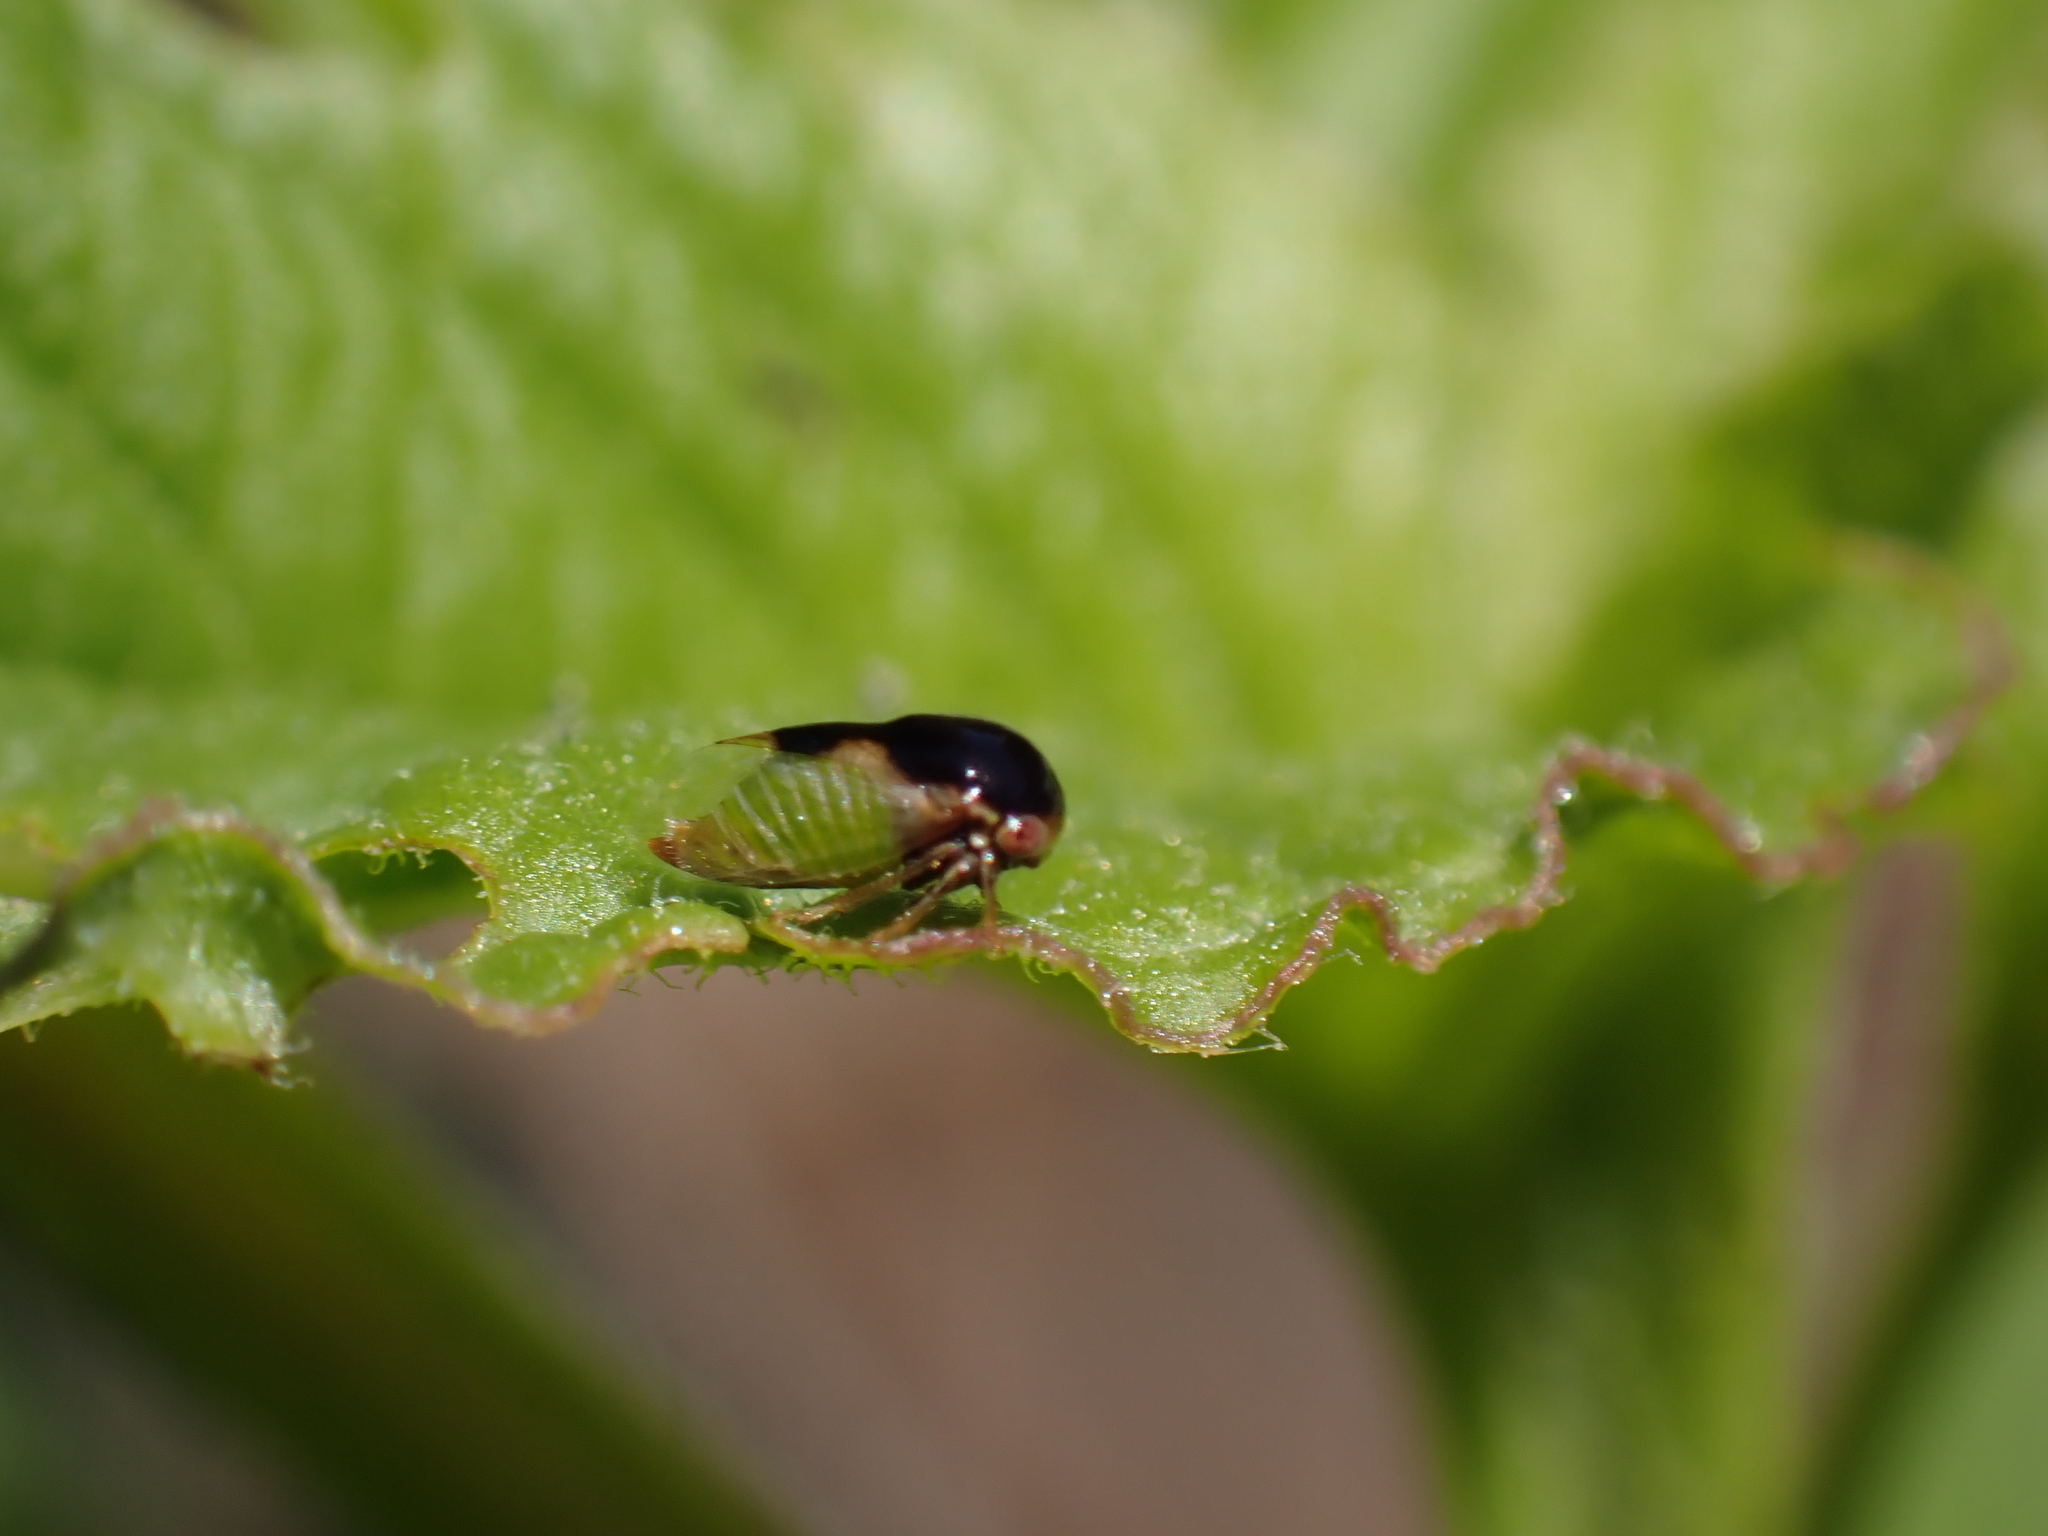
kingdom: Animalia
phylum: Arthropoda
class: Insecta
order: Hemiptera
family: Membracidae
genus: Micrutalis
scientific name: Micrutalis calva
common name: Honeylocust treehopper
